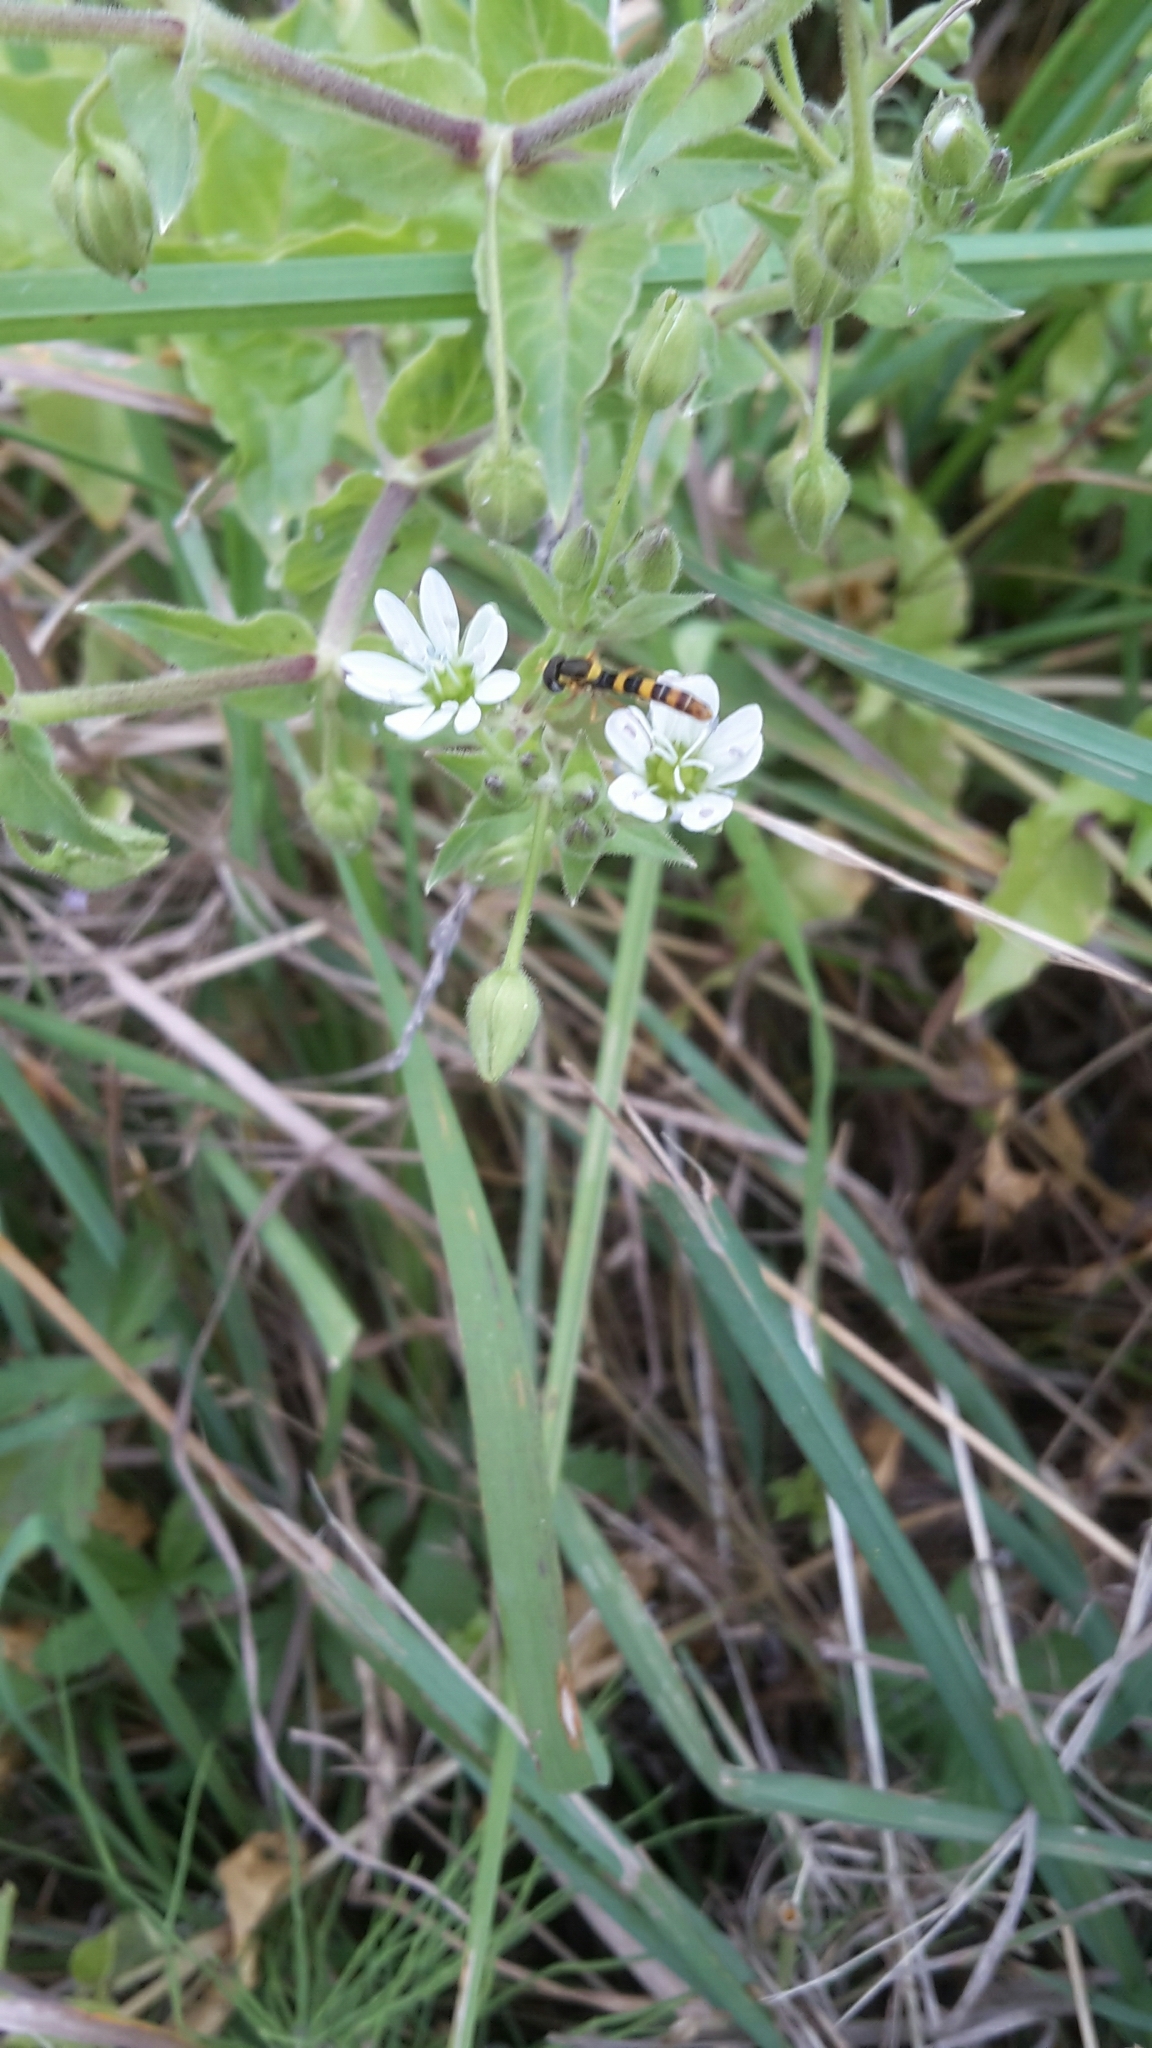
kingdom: Animalia
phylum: Arthropoda
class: Insecta
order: Diptera
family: Syrphidae
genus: Sphaerophoria
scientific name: Sphaerophoria scripta
